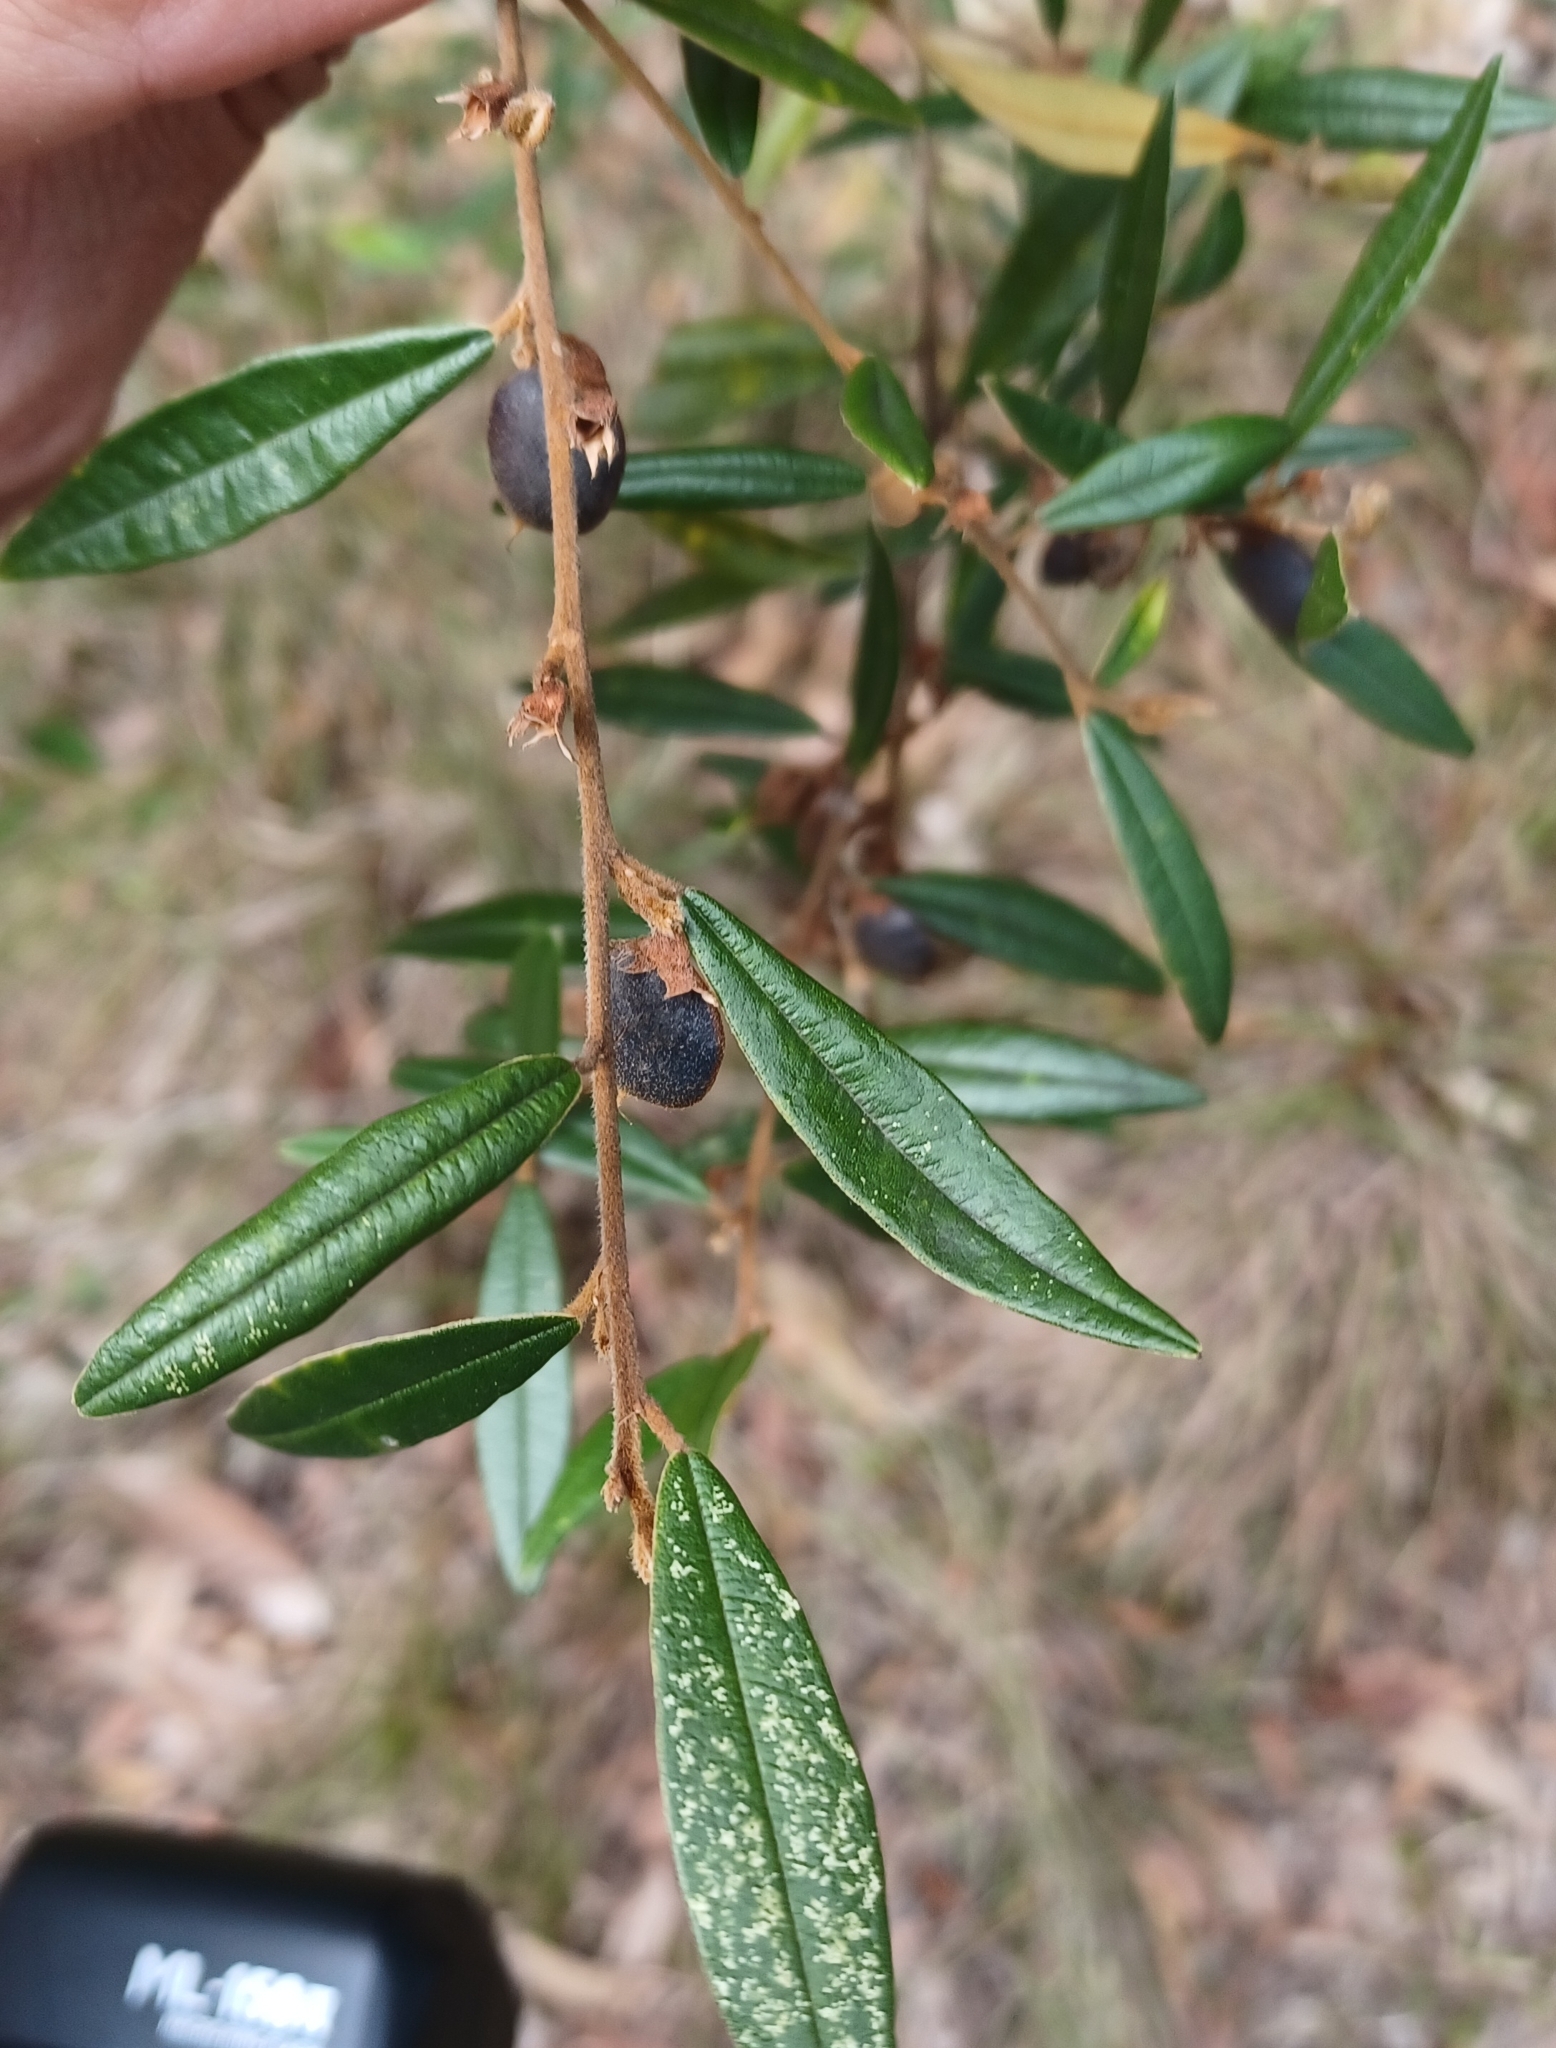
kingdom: Plantae
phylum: Tracheophyta
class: Magnoliopsida
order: Fabales
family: Fabaceae
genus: Hovea
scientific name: Hovea acutifolia
